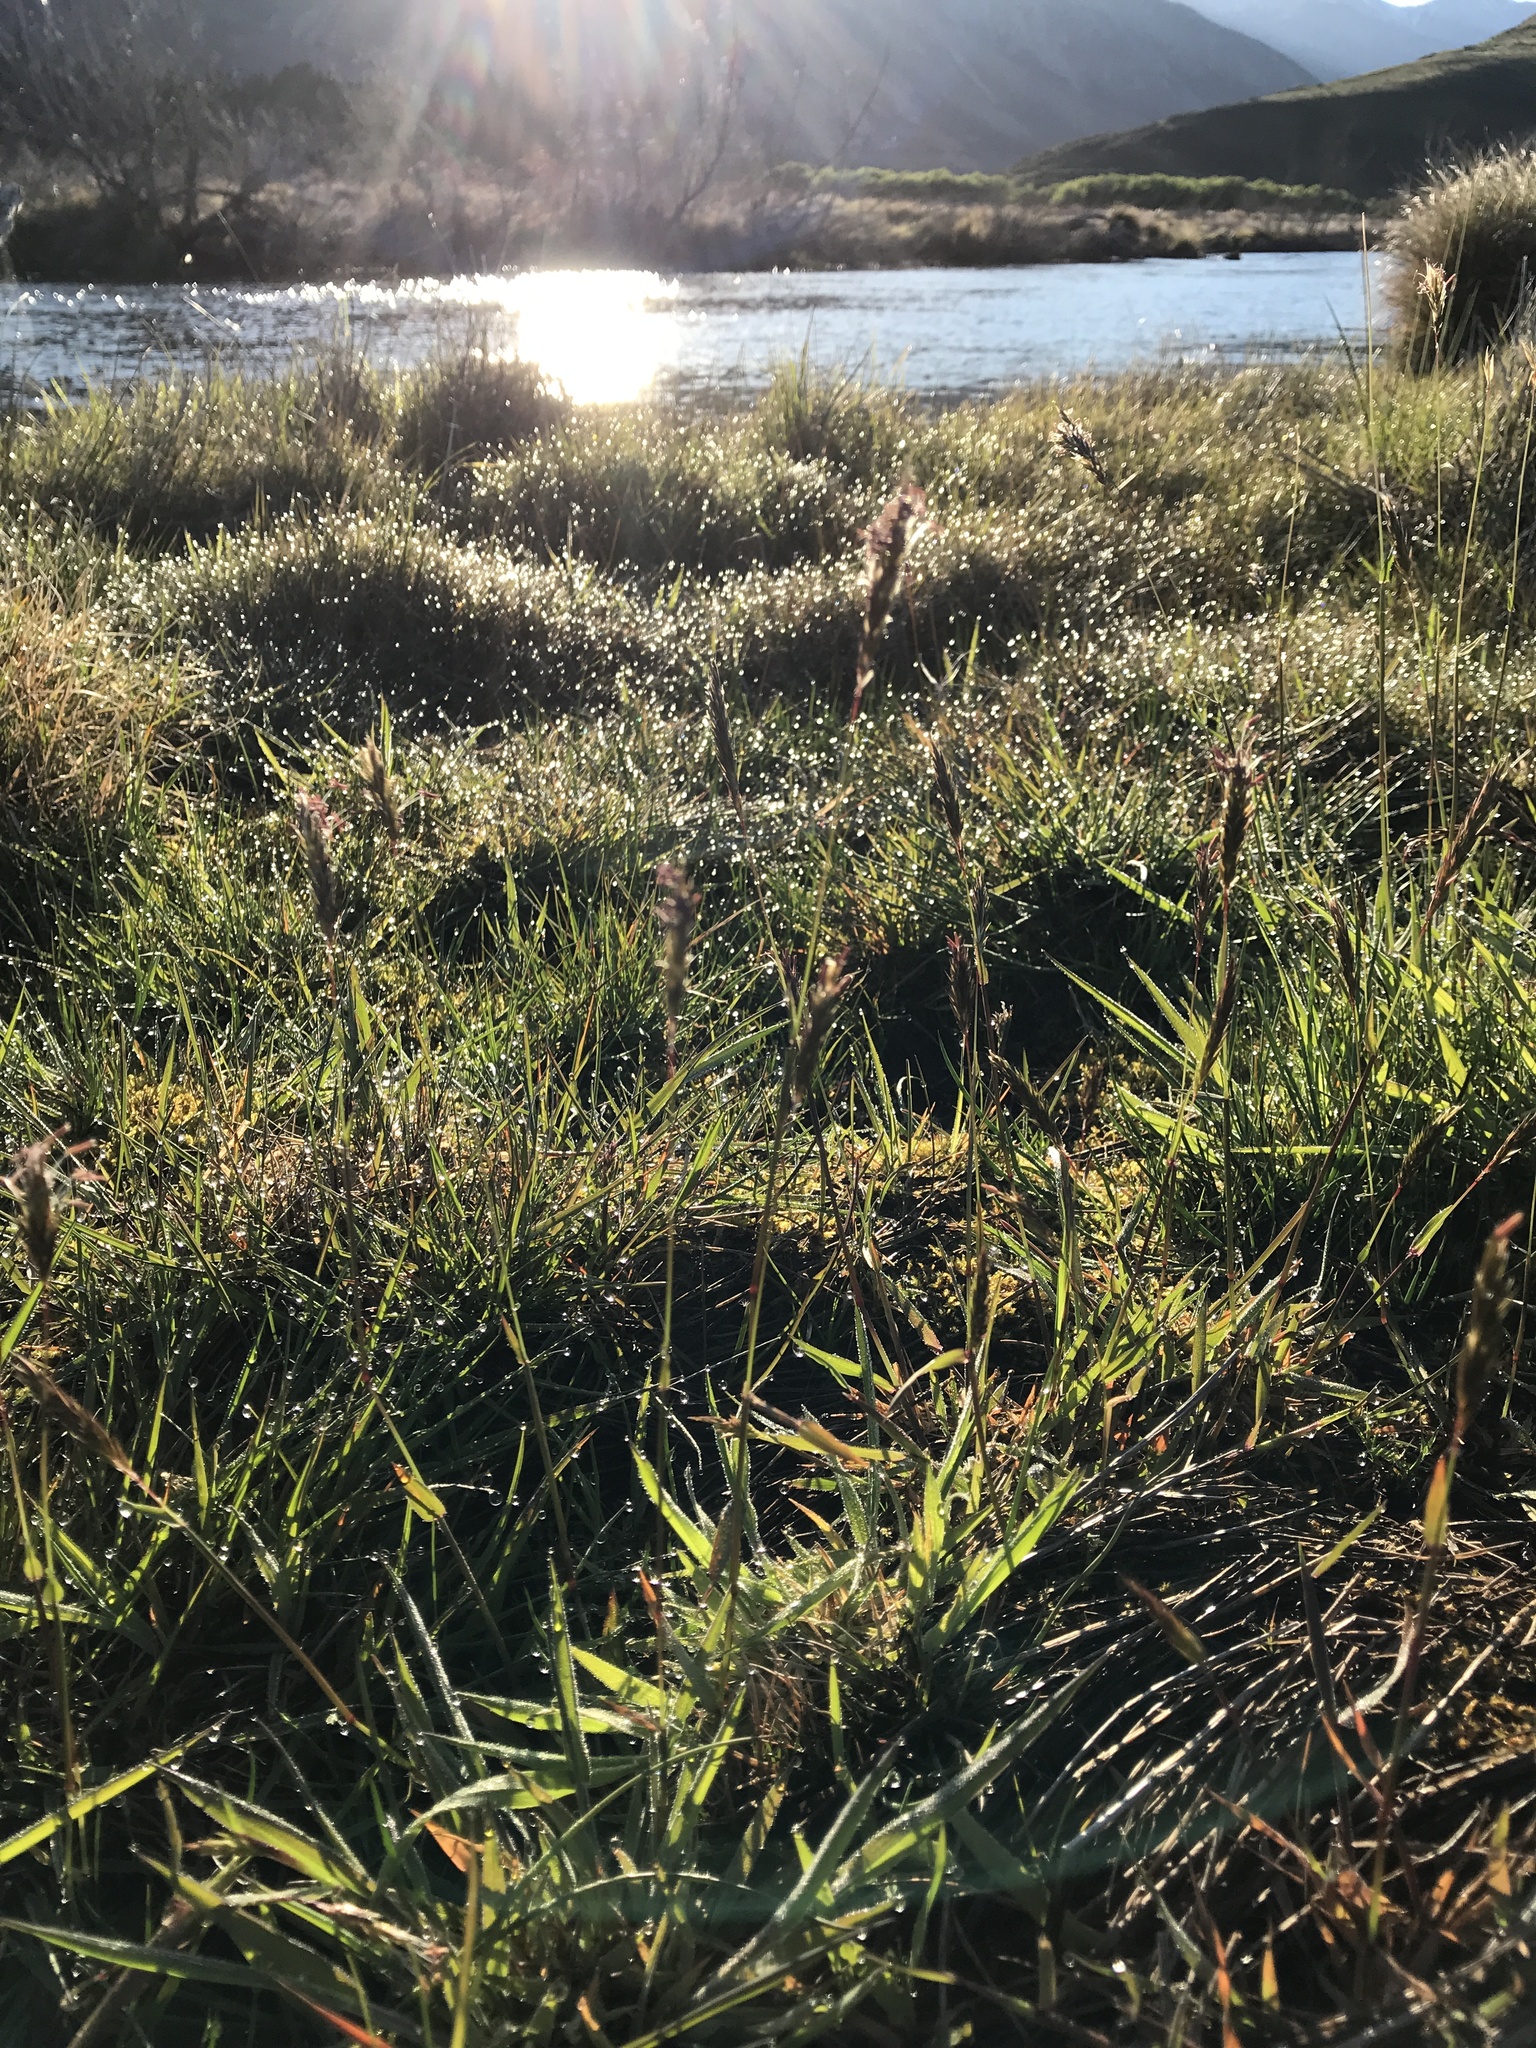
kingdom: Plantae
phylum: Tracheophyta
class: Liliopsida
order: Poales
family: Poaceae
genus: Anthoxanthum
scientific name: Anthoxanthum odoratum
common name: Sweet vernalgrass
